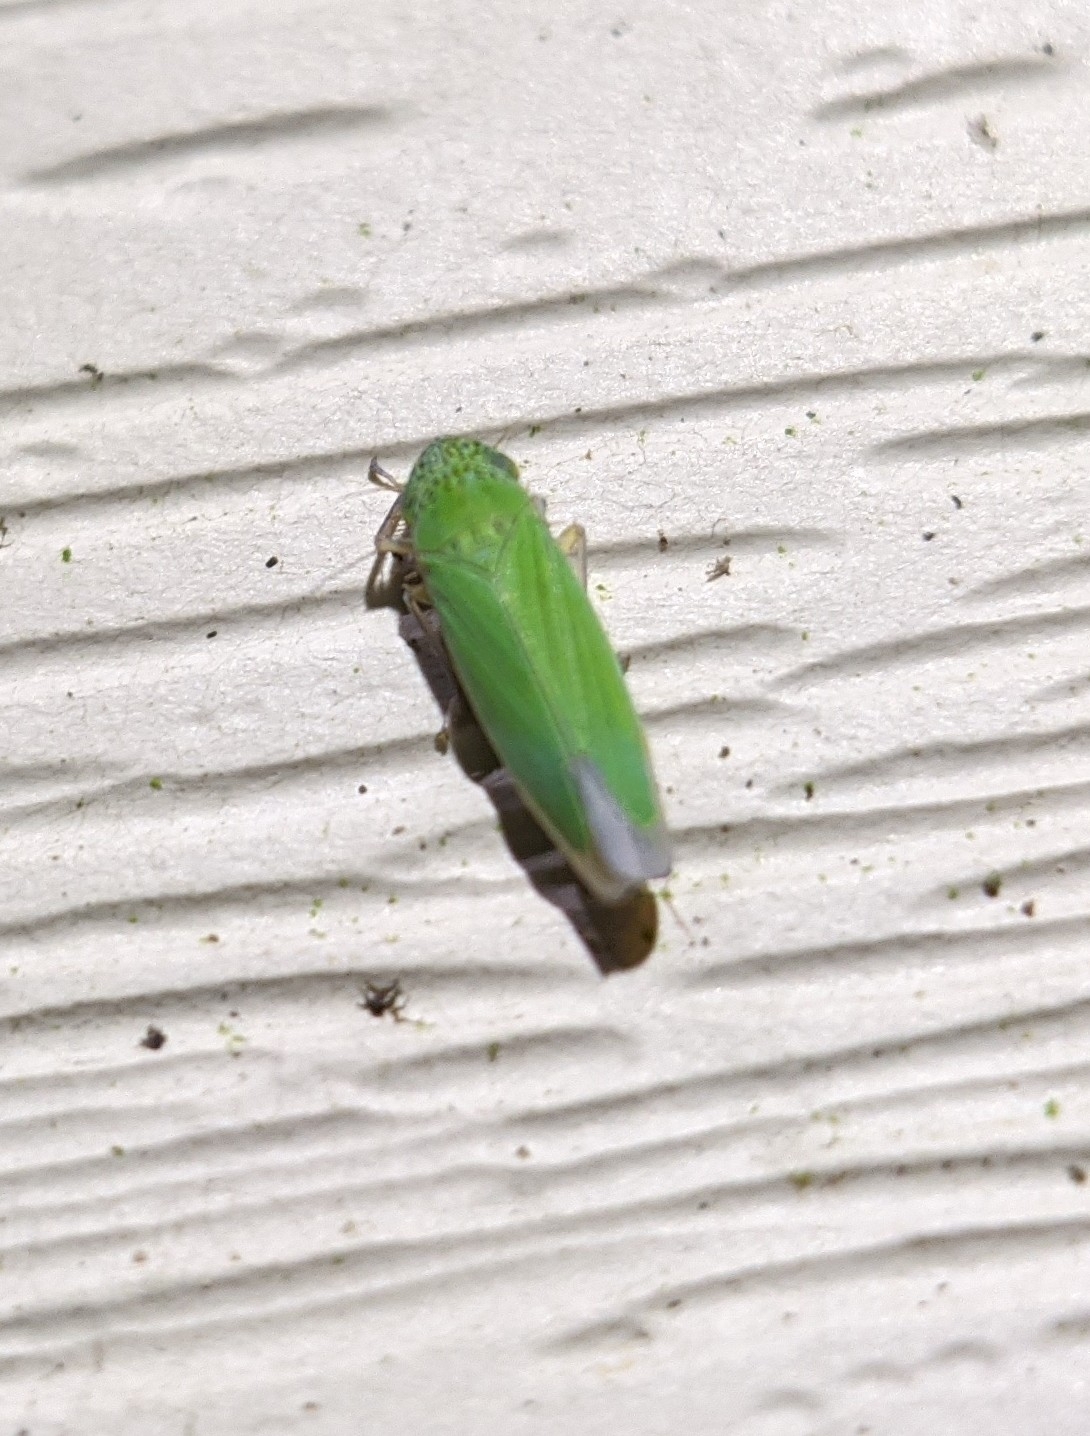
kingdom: Animalia
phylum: Arthropoda
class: Insecta
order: Hemiptera
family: Cicadellidae
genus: Hortensia
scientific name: Hortensia similis
